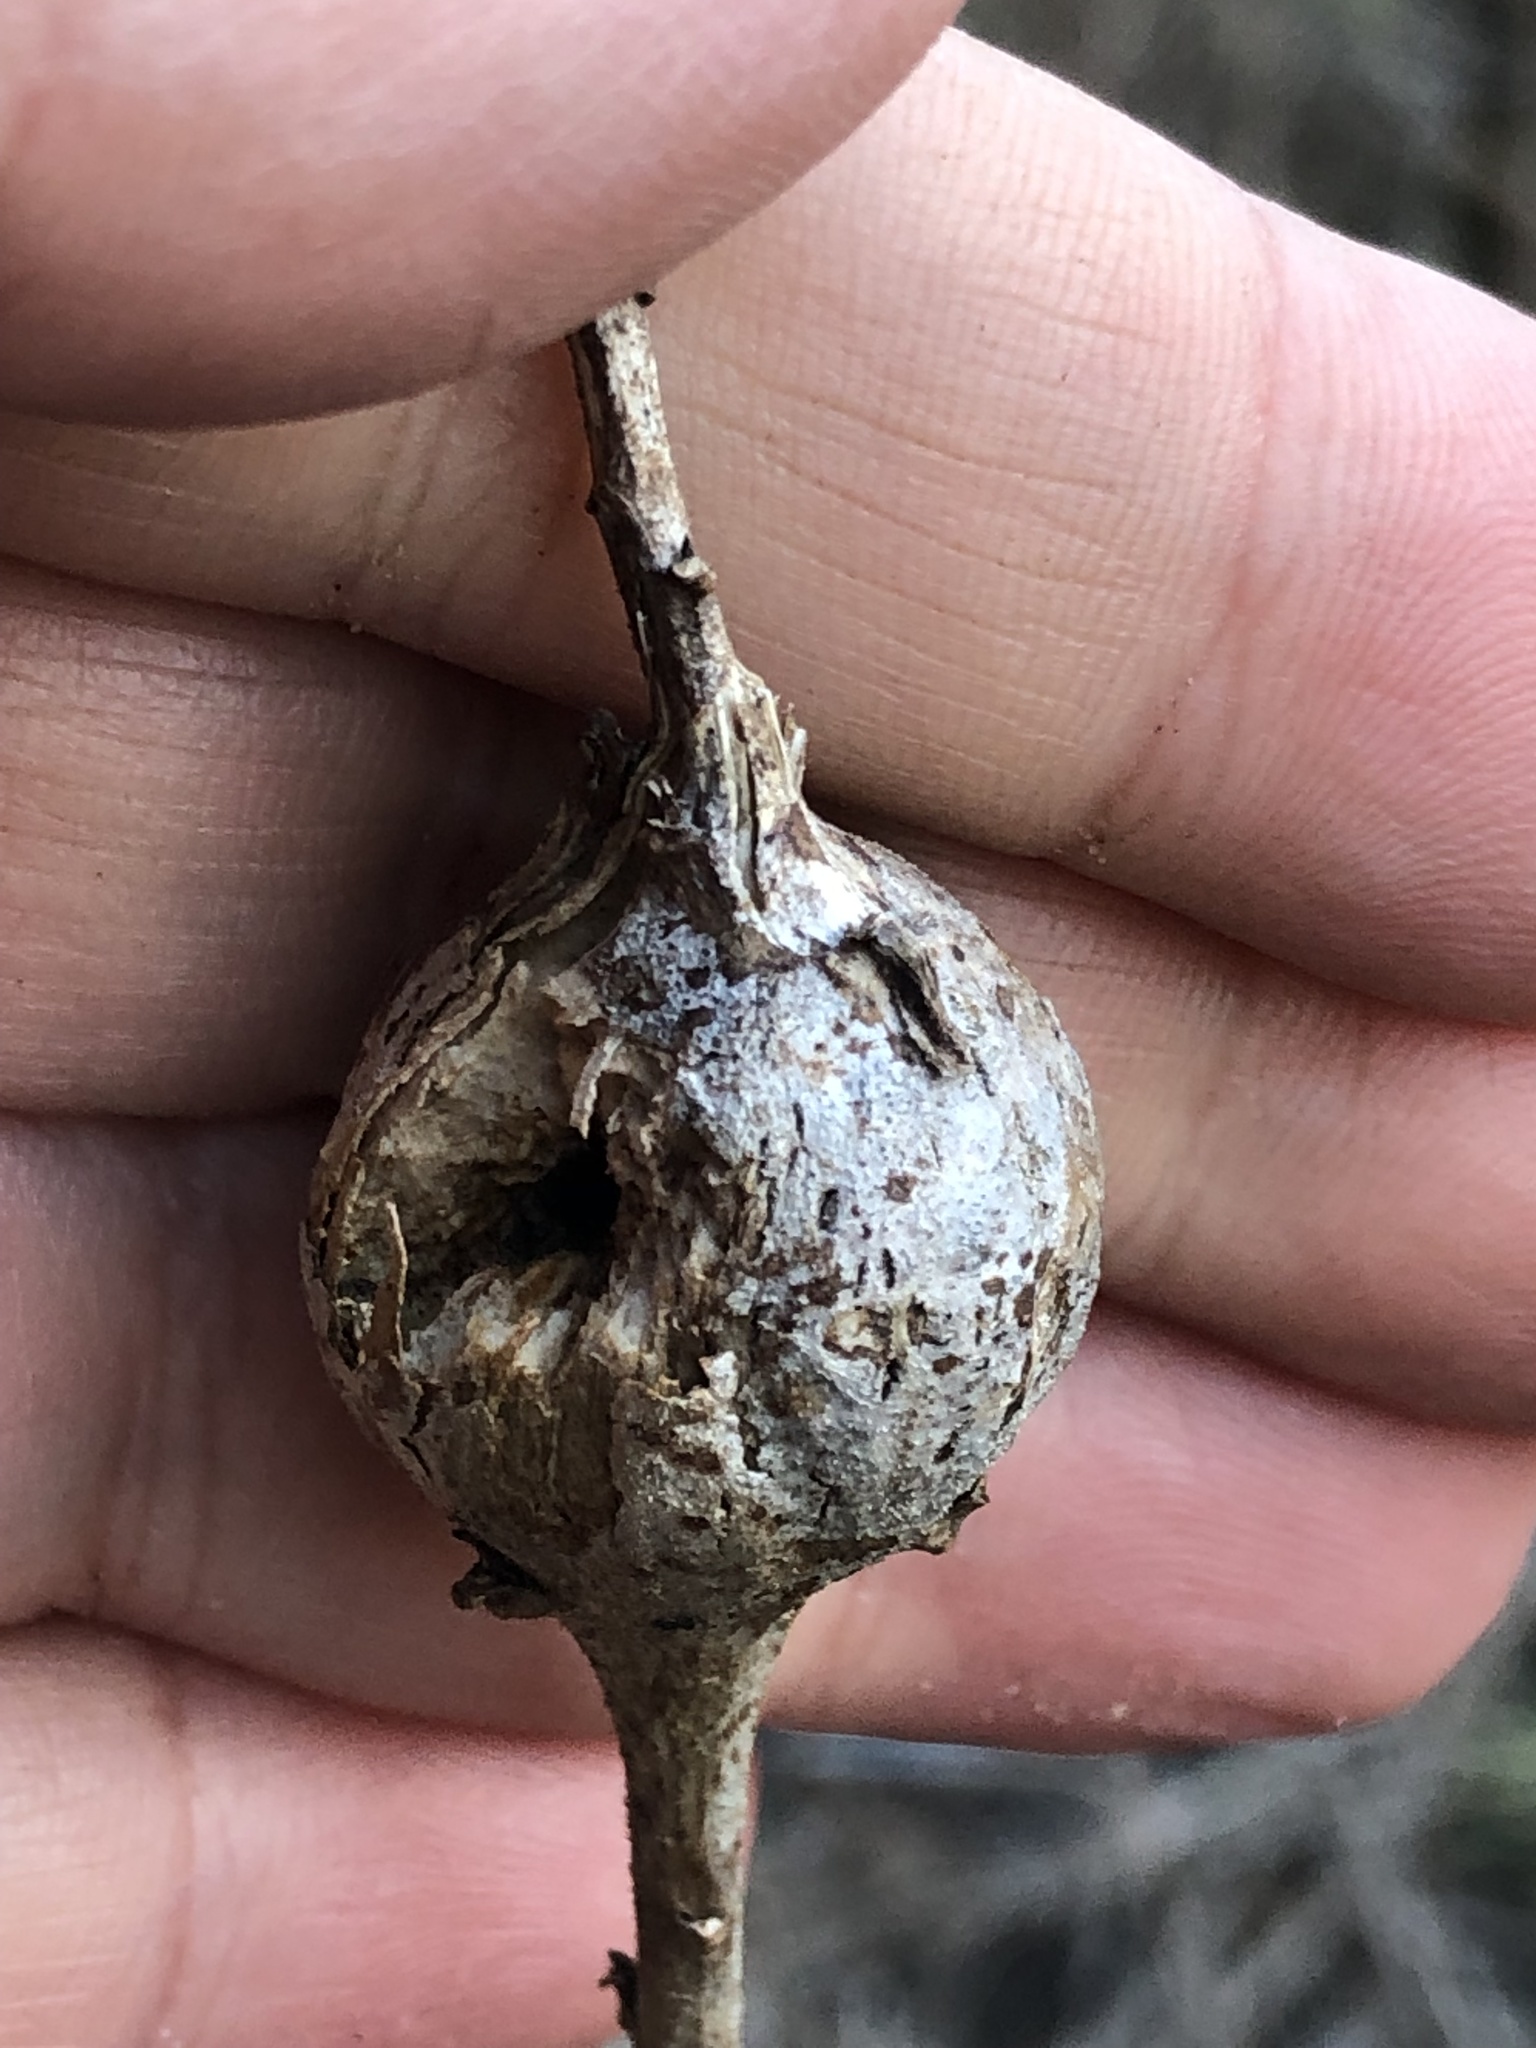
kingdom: Animalia
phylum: Arthropoda
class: Insecta
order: Diptera
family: Tephritidae
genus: Eurosta
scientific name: Eurosta solidaginis
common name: Goldenrod gall fly
